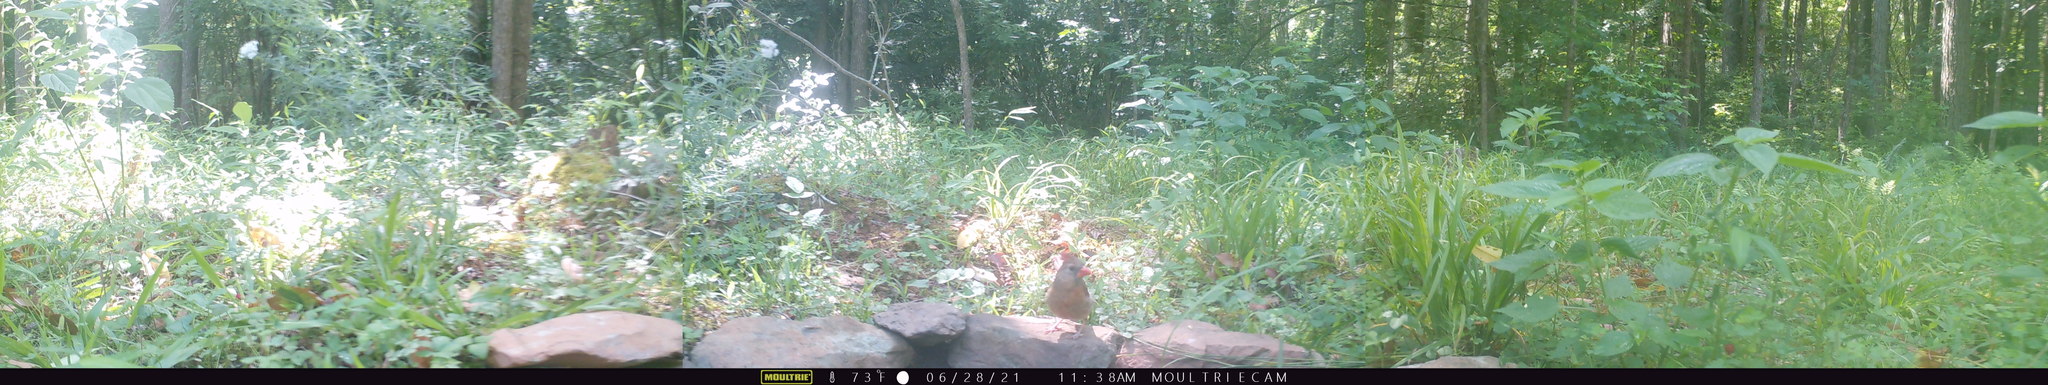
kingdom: Animalia
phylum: Chordata
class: Aves
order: Passeriformes
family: Cardinalidae
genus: Cardinalis
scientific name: Cardinalis cardinalis
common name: Northern cardinal
